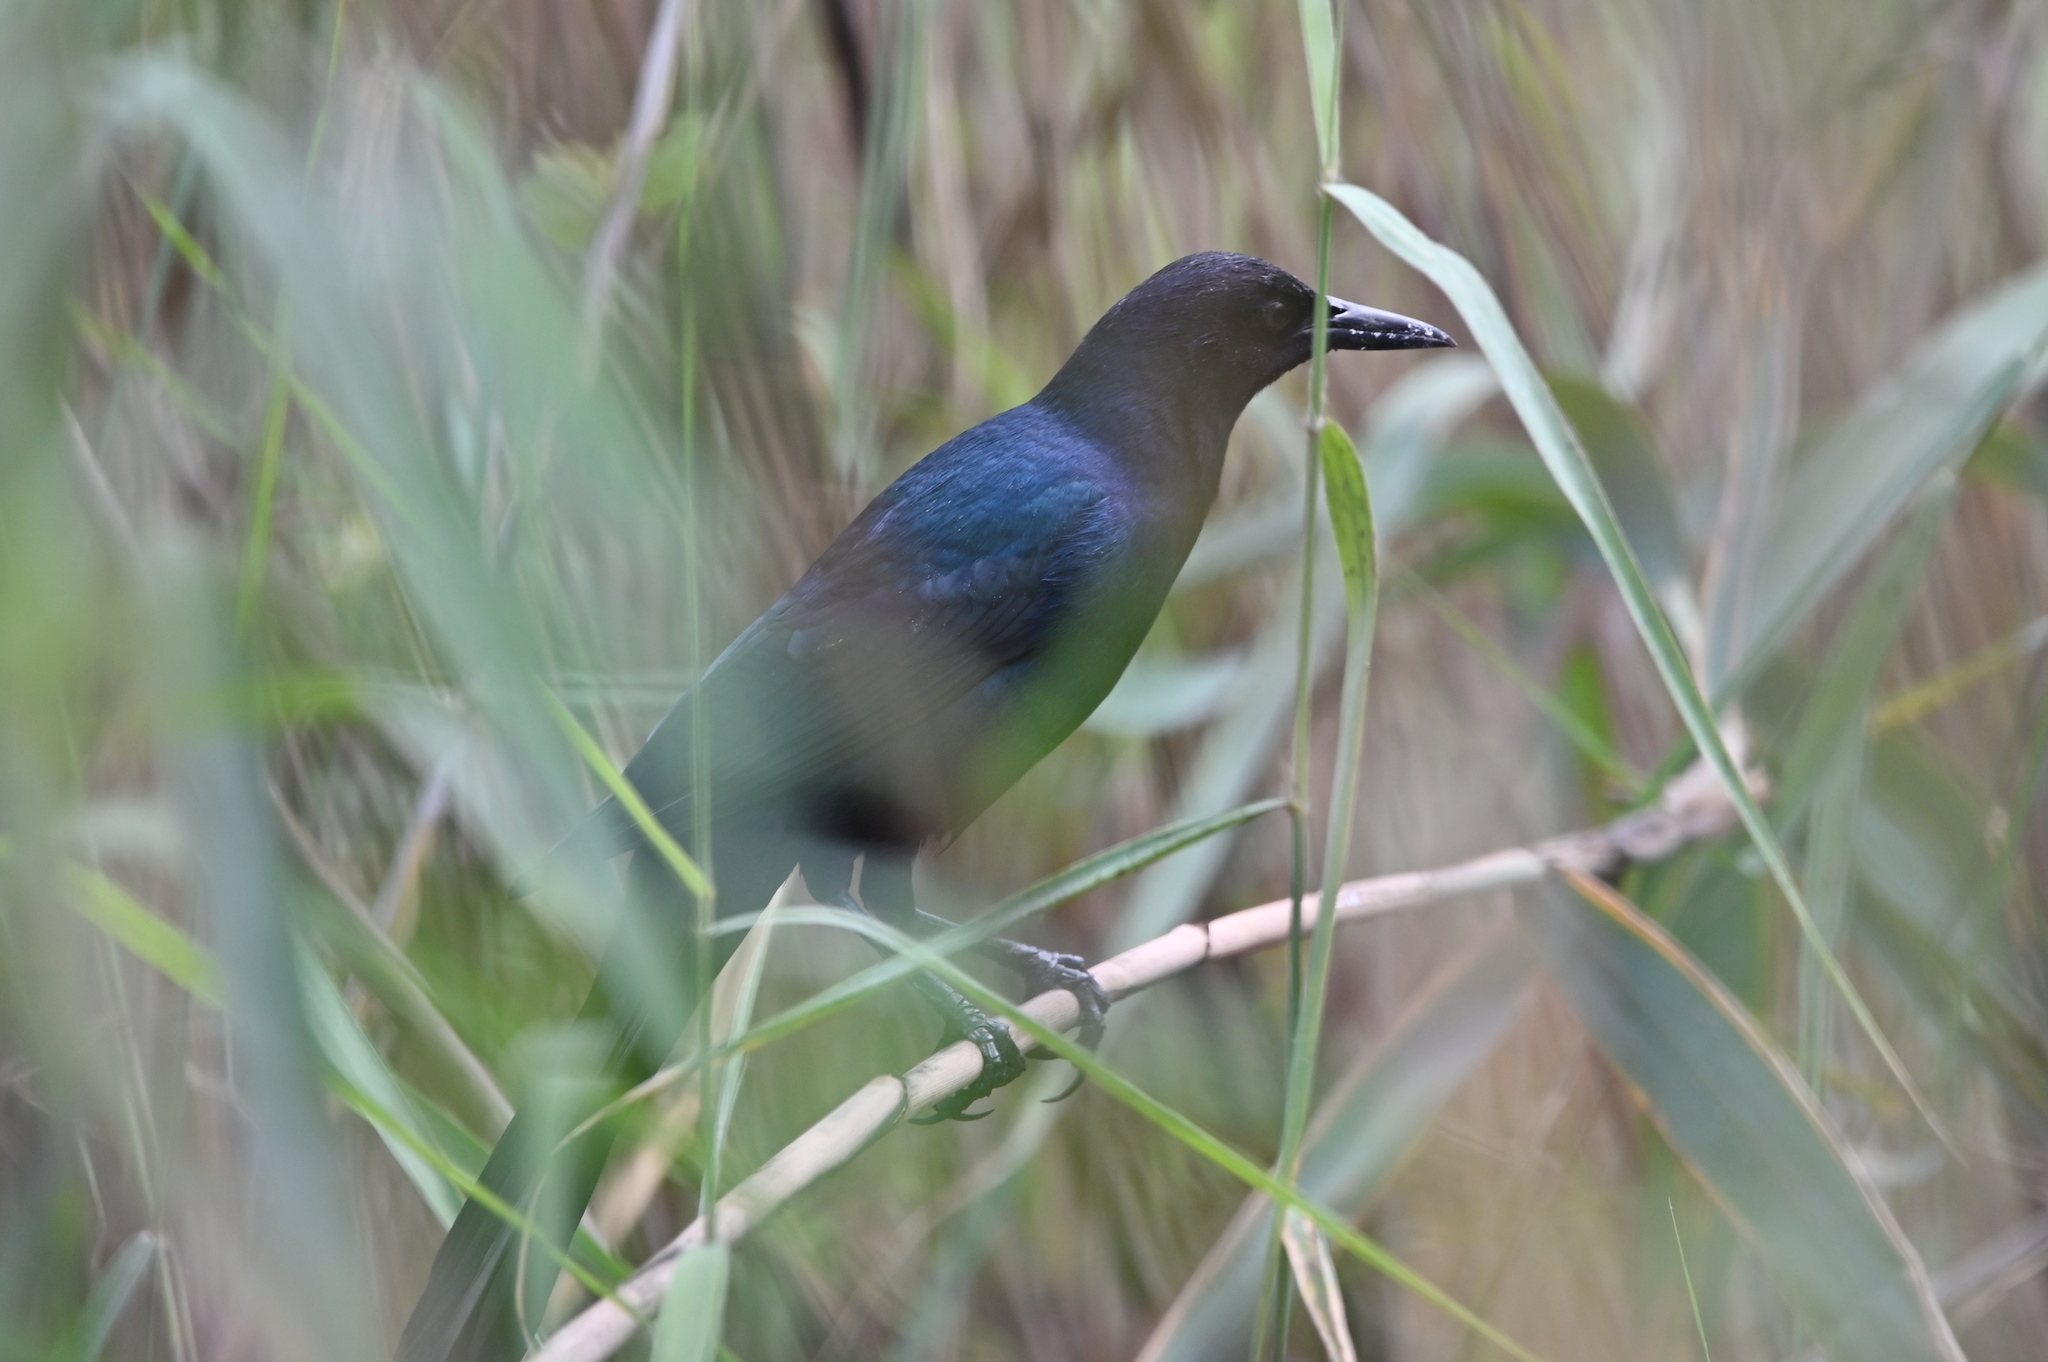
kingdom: Animalia
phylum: Chordata
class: Aves
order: Passeriformes
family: Icteridae
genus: Quiscalus
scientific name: Quiscalus major
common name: Boat-tailed grackle
